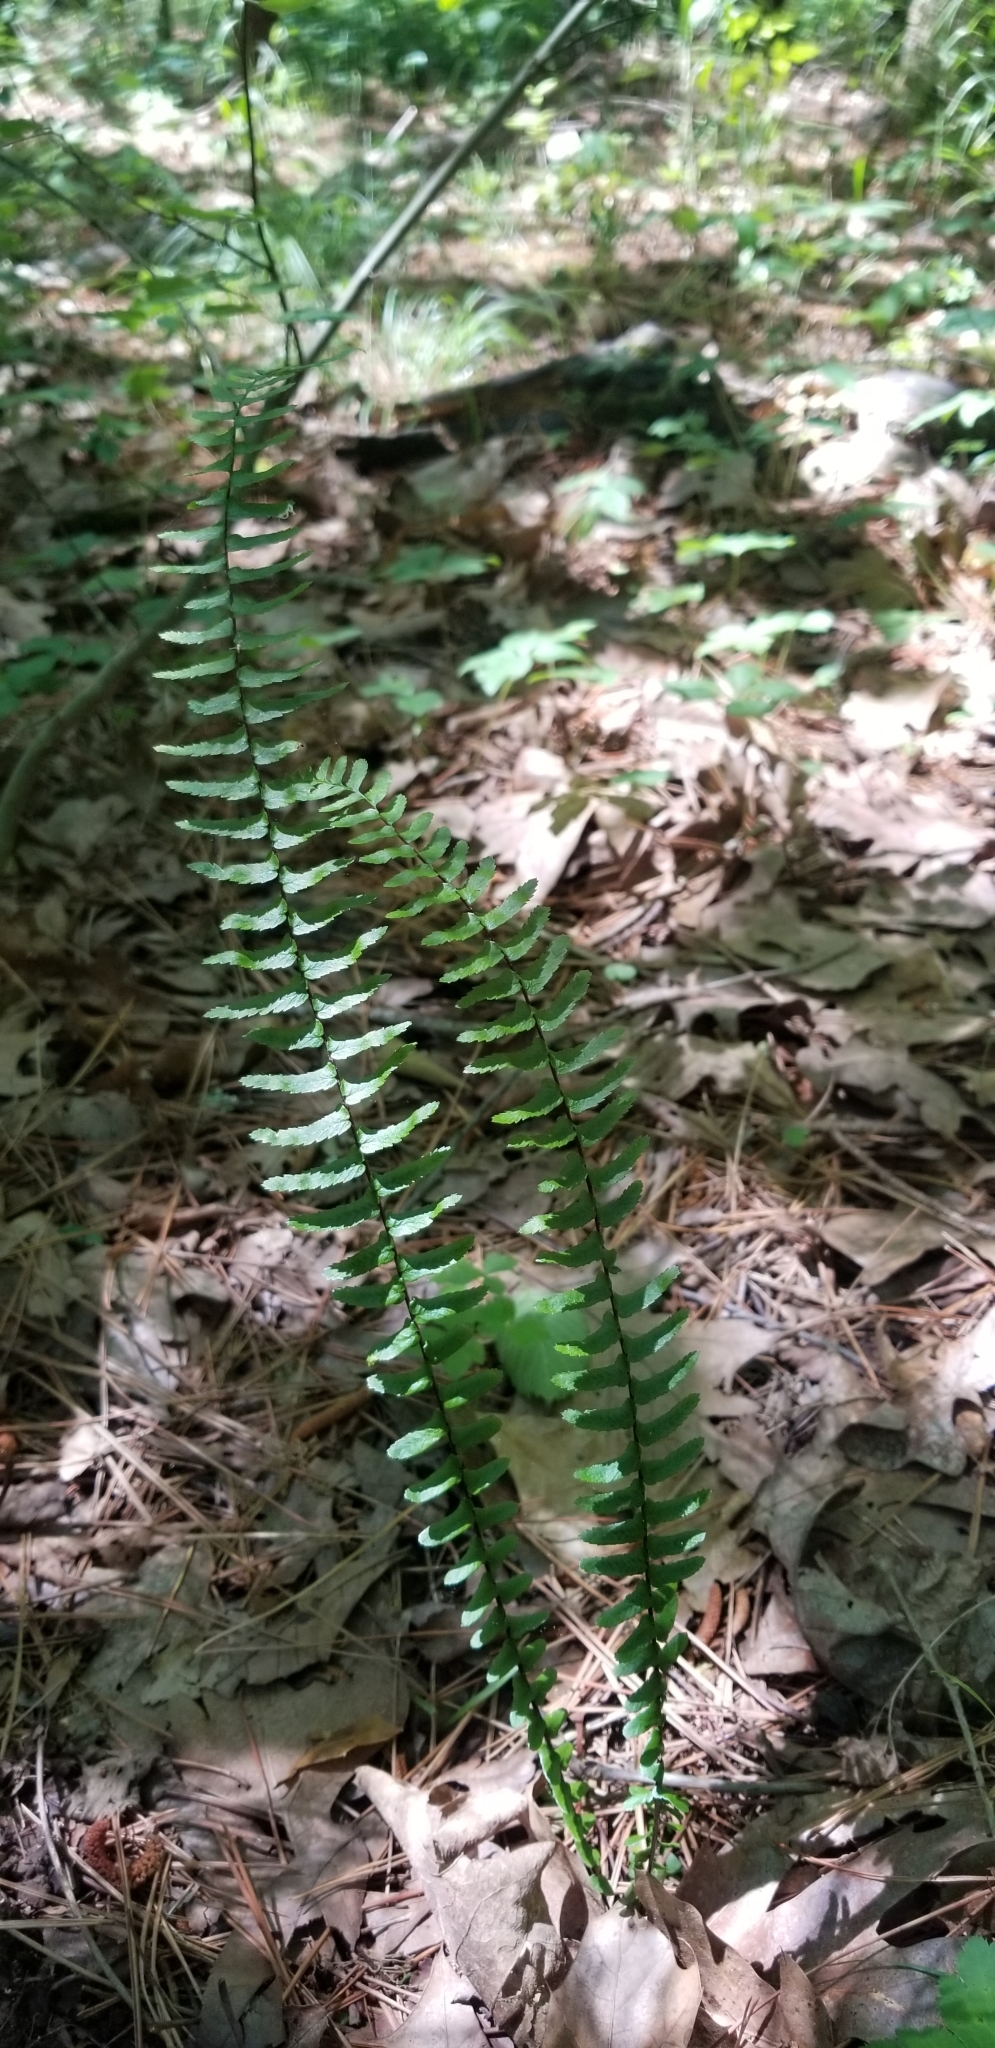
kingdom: Plantae
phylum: Tracheophyta
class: Polypodiopsida
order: Polypodiales
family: Aspleniaceae
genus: Asplenium
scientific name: Asplenium platyneuron
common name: Ebony spleenwort
